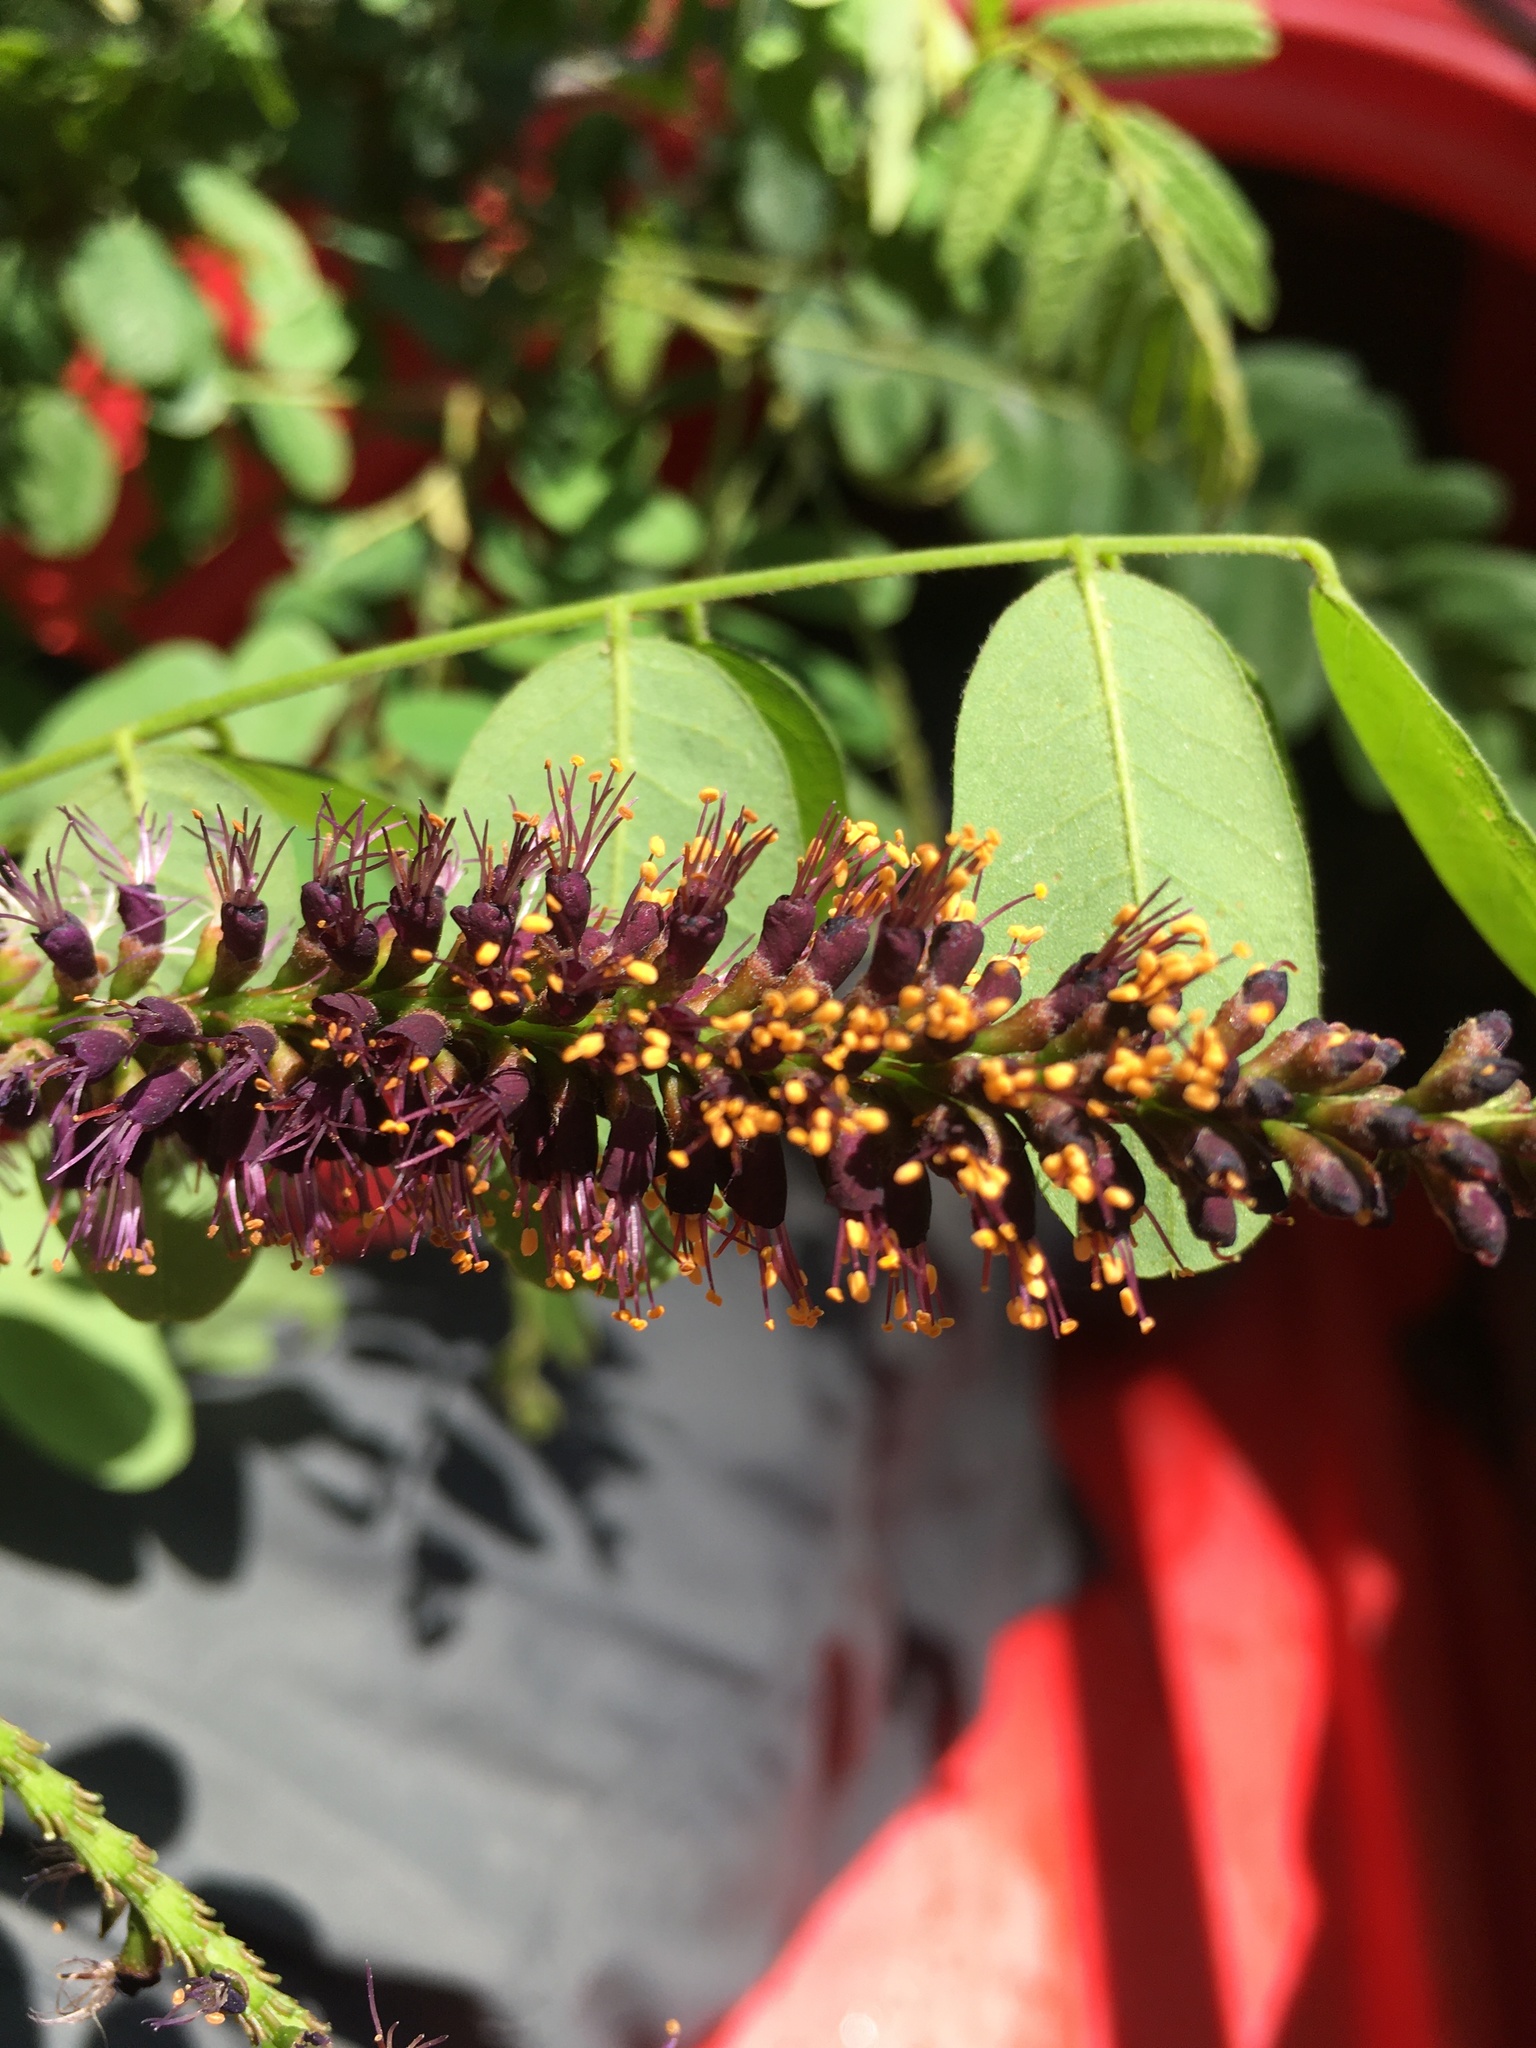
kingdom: Plantae
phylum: Tracheophyta
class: Magnoliopsida
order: Fabales
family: Fabaceae
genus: Amorpha
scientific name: Amorpha fruticosa
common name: False indigo
